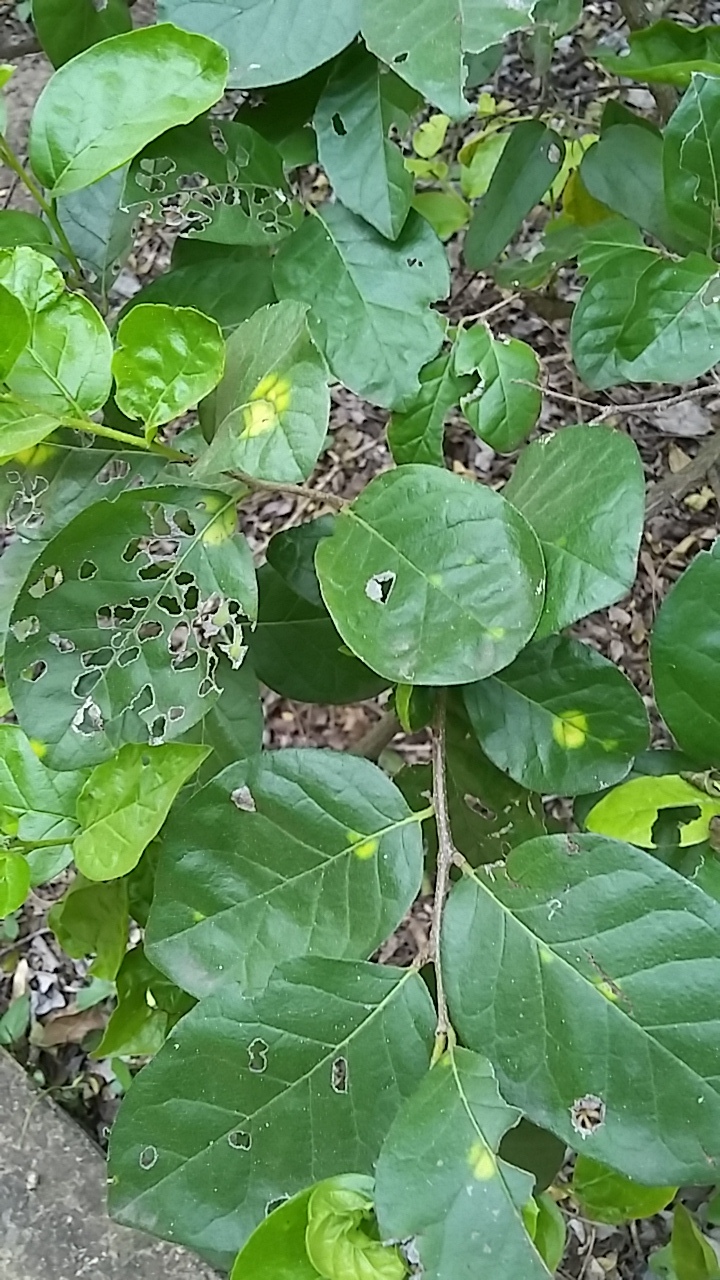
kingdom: Plantae
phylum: Tracheophyta
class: Magnoliopsida
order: Boraginales
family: Ehretiaceae
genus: Ehretia
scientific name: Ehretia anacua
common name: Sugarberry
